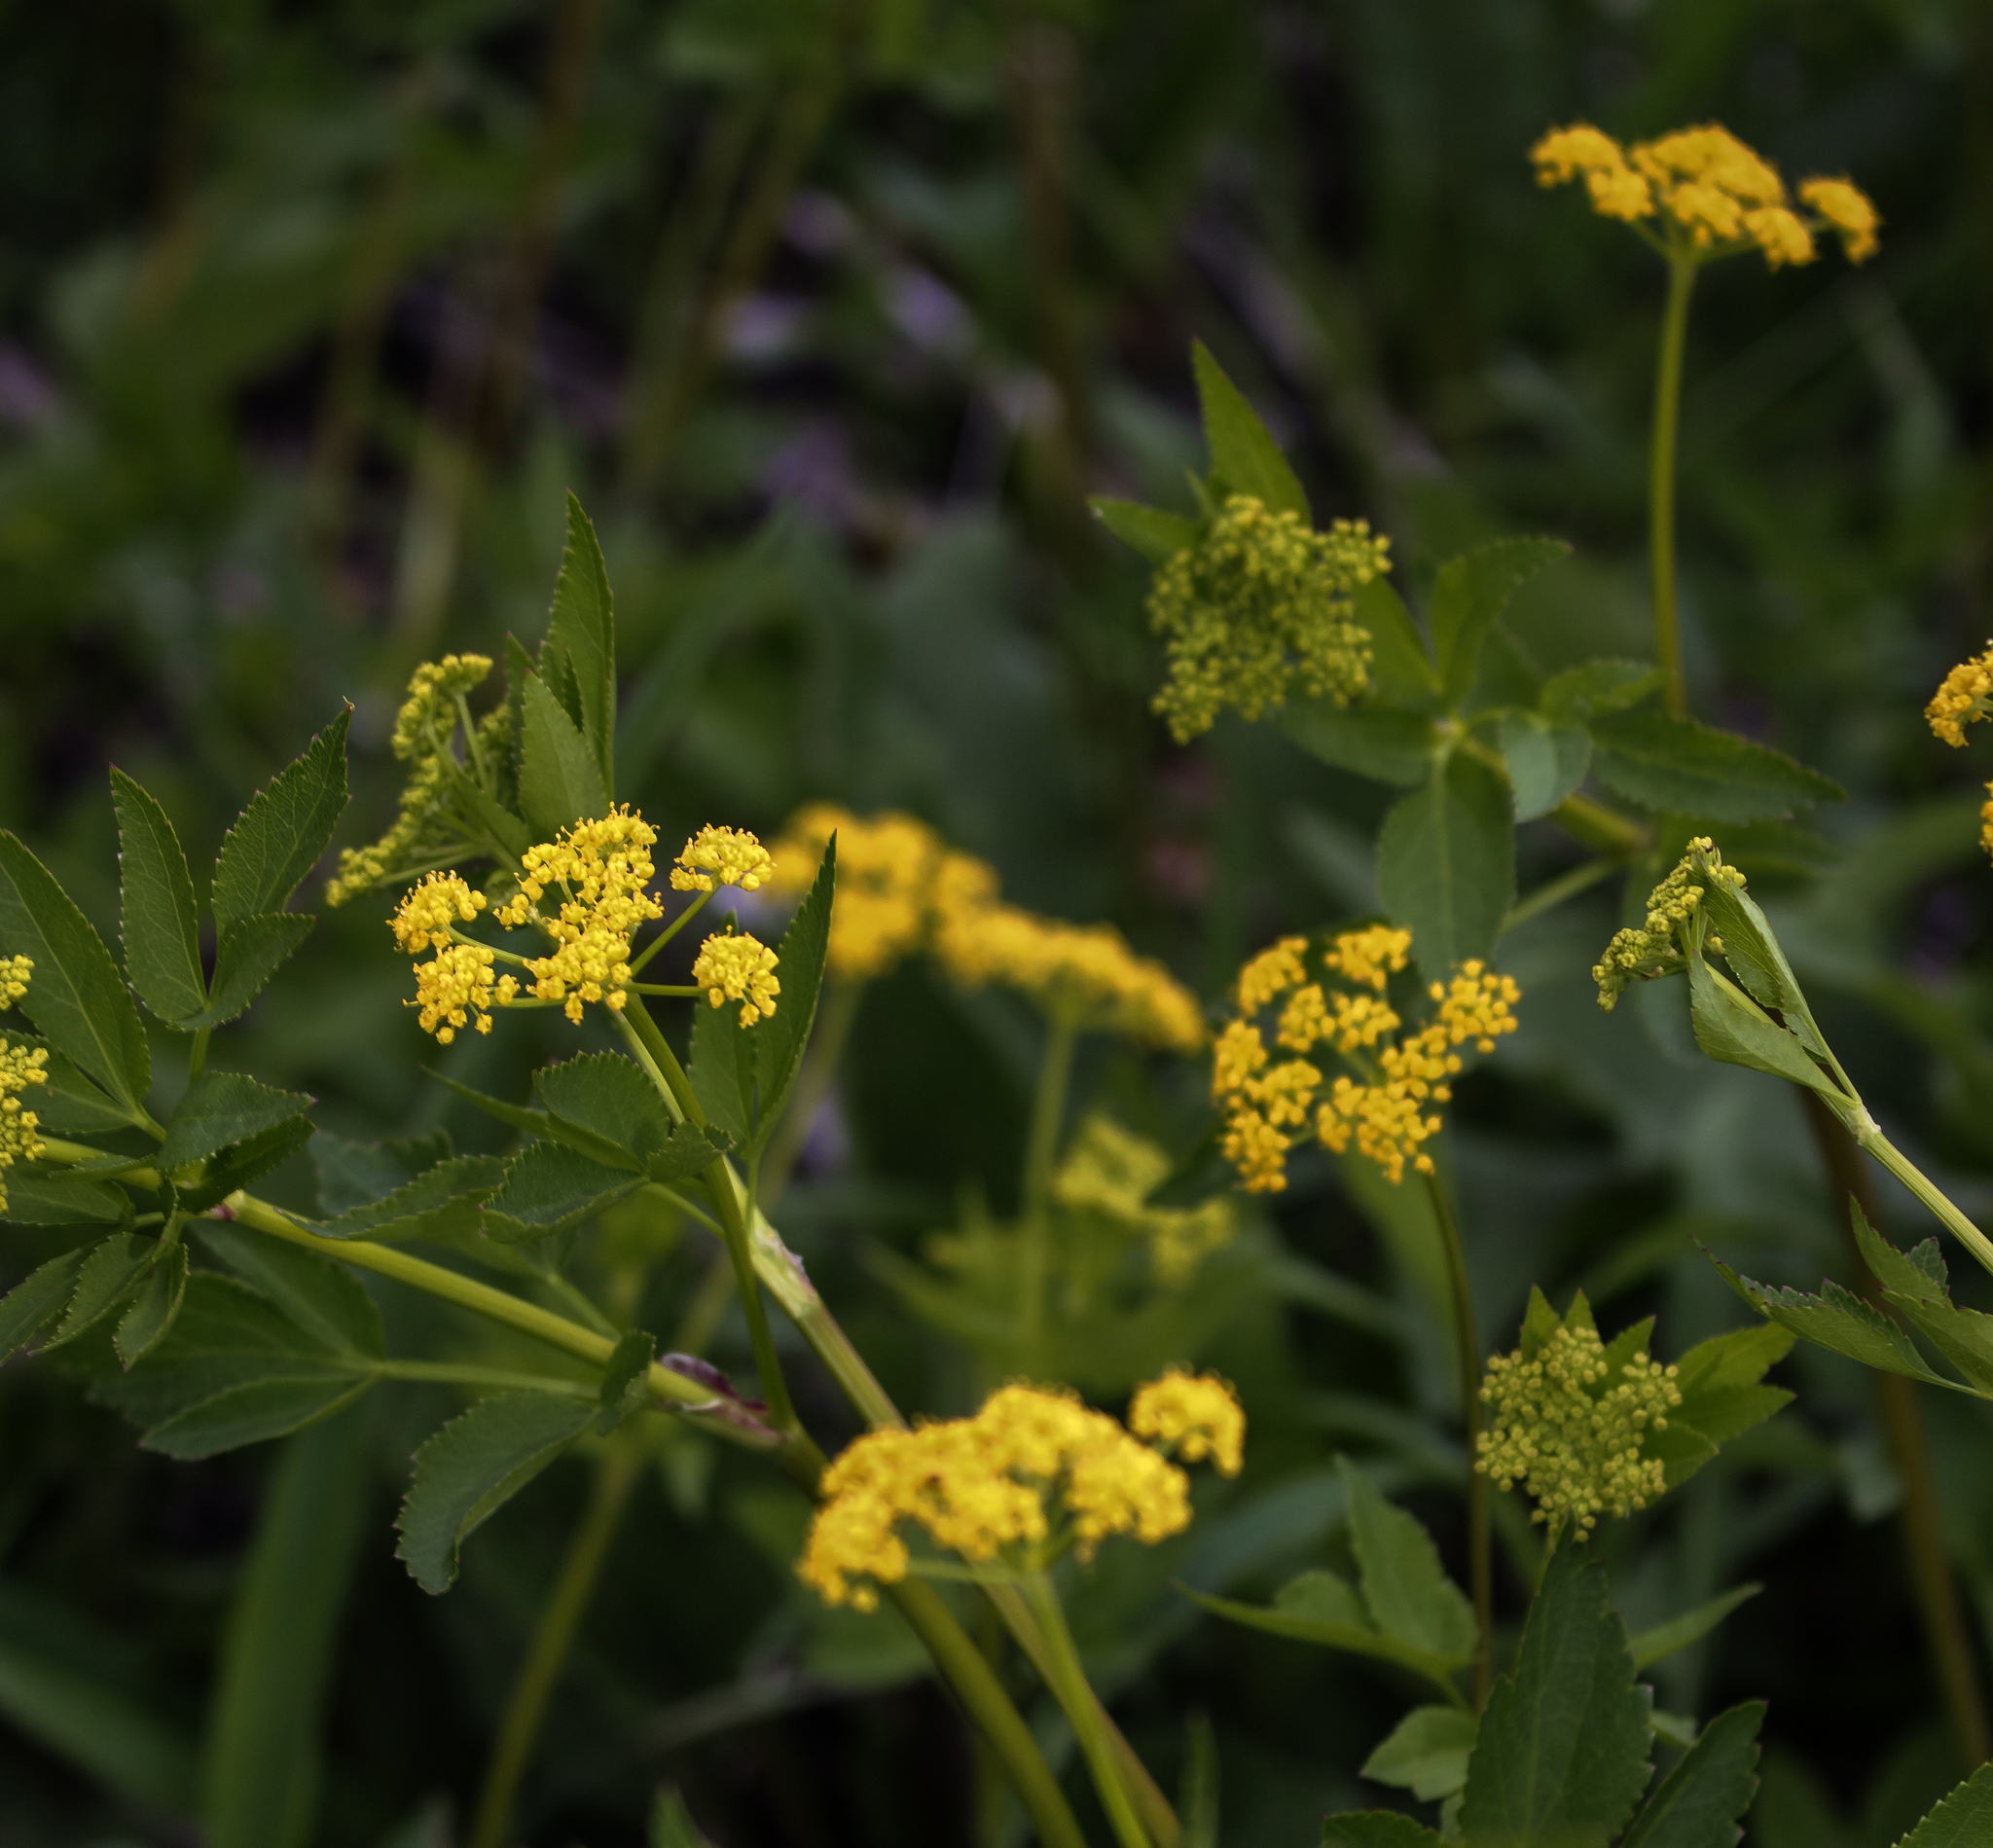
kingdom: Plantae
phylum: Tracheophyta
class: Magnoliopsida
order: Apiales
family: Apiaceae
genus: Zizia
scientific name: Zizia aurea
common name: Golden alexanders
